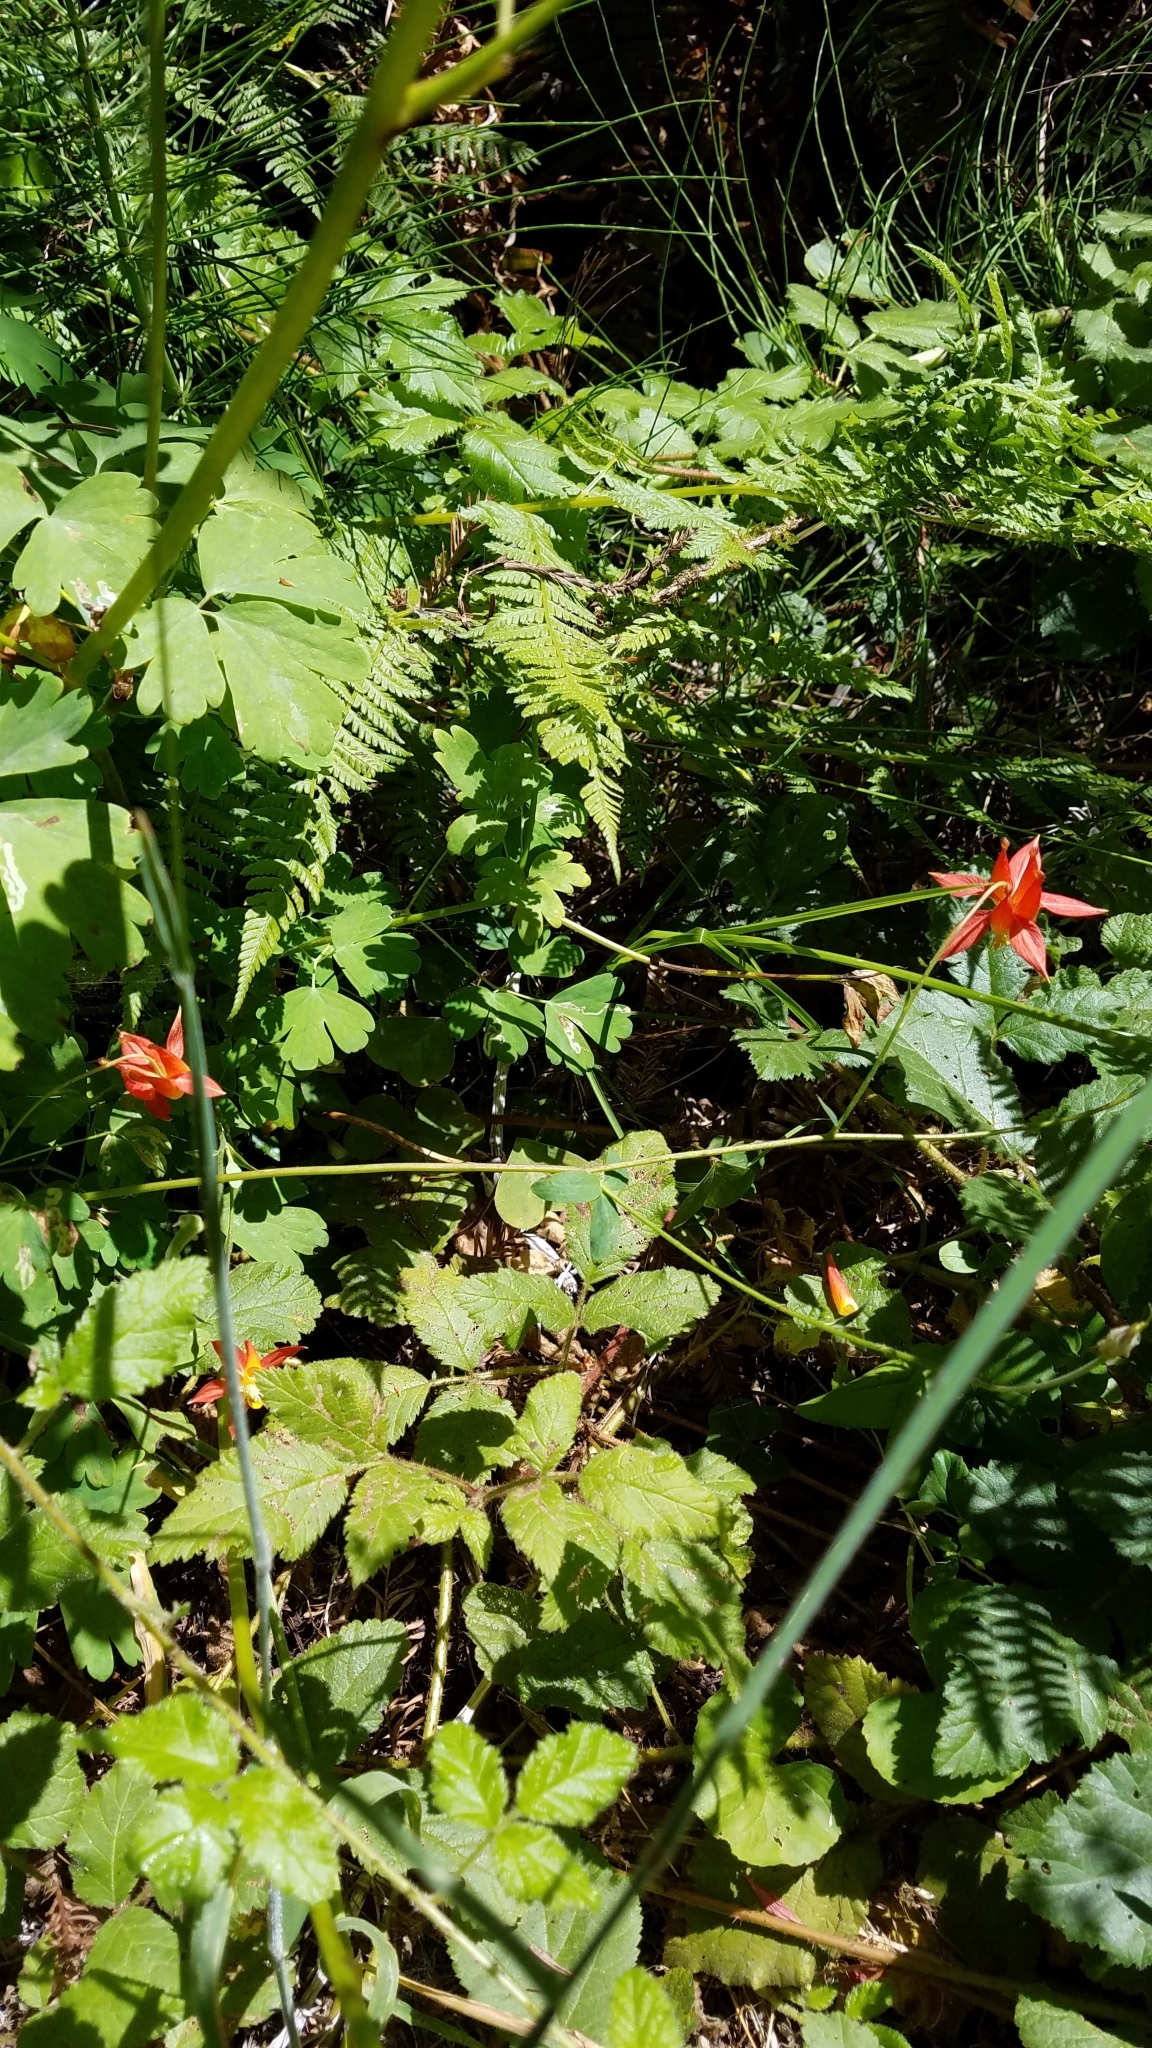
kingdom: Plantae
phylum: Tracheophyta
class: Magnoliopsida
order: Ranunculales
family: Ranunculaceae
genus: Aquilegia
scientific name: Aquilegia formosa
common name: Sitka columbine
